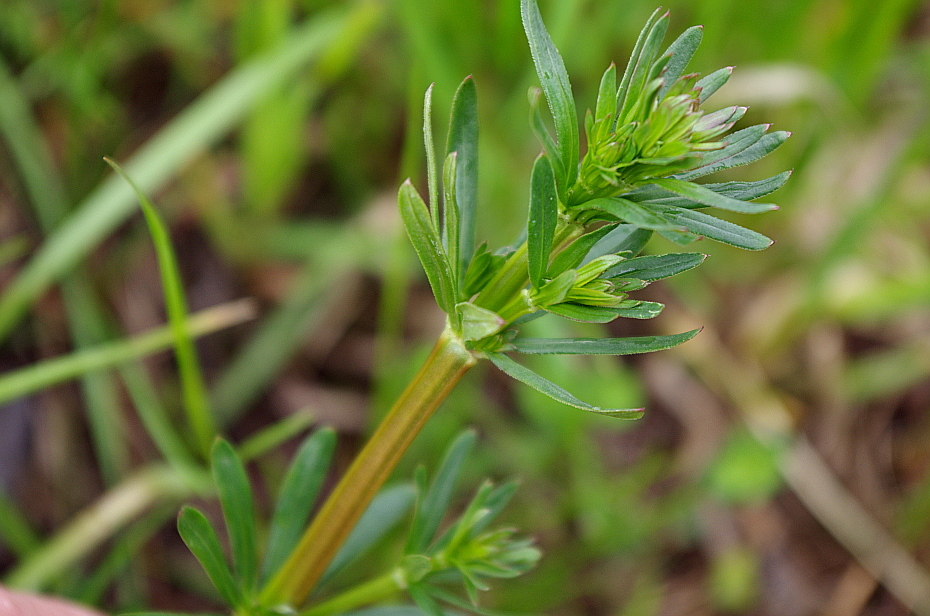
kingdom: Plantae
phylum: Tracheophyta
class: Magnoliopsida
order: Gentianales
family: Rubiaceae
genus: Galium
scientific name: Galium mollugo
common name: Hedge bedstraw
